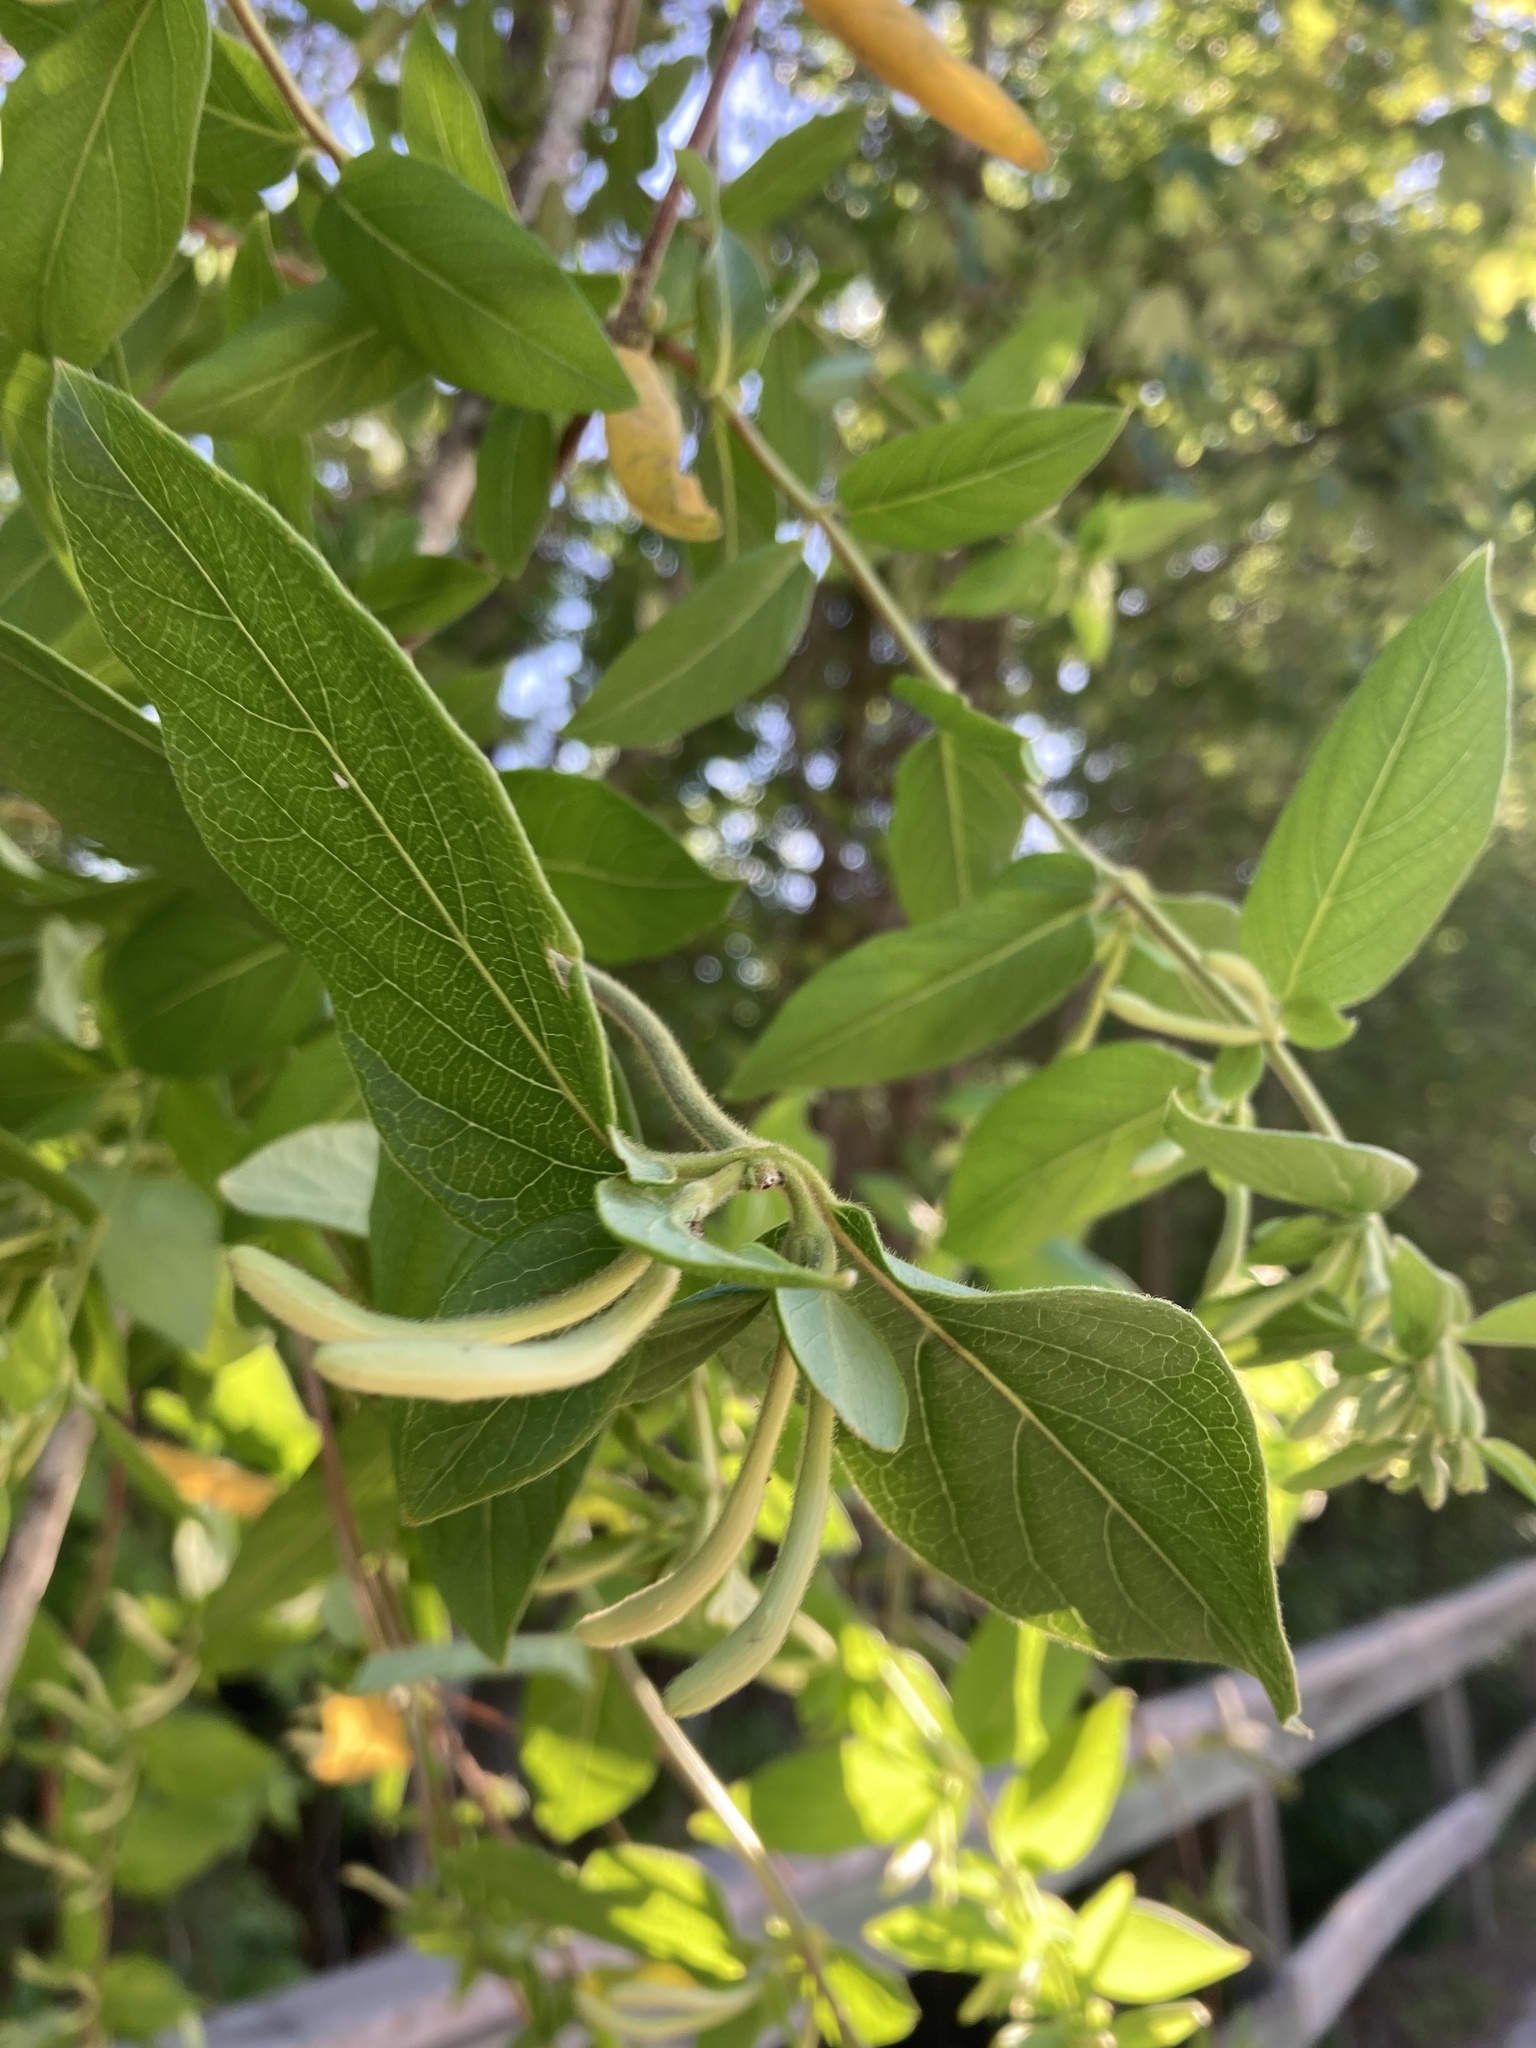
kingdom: Plantae
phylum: Tracheophyta
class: Magnoliopsida
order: Dipsacales
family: Caprifoliaceae
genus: Lonicera
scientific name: Lonicera japonica
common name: Japanese honeysuckle
